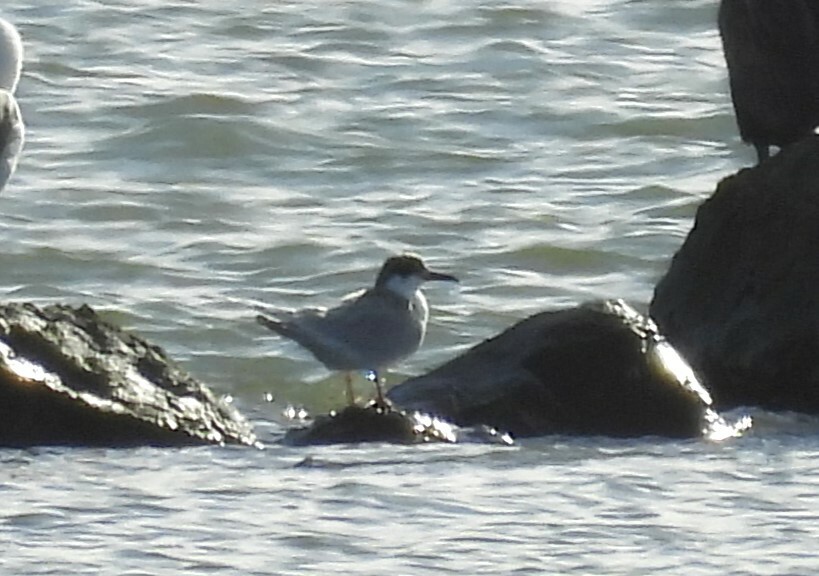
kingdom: Animalia
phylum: Chordata
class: Aves
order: Charadriiformes
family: Laridae
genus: Sterna
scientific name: Sterna forsteri
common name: Forster's tern
